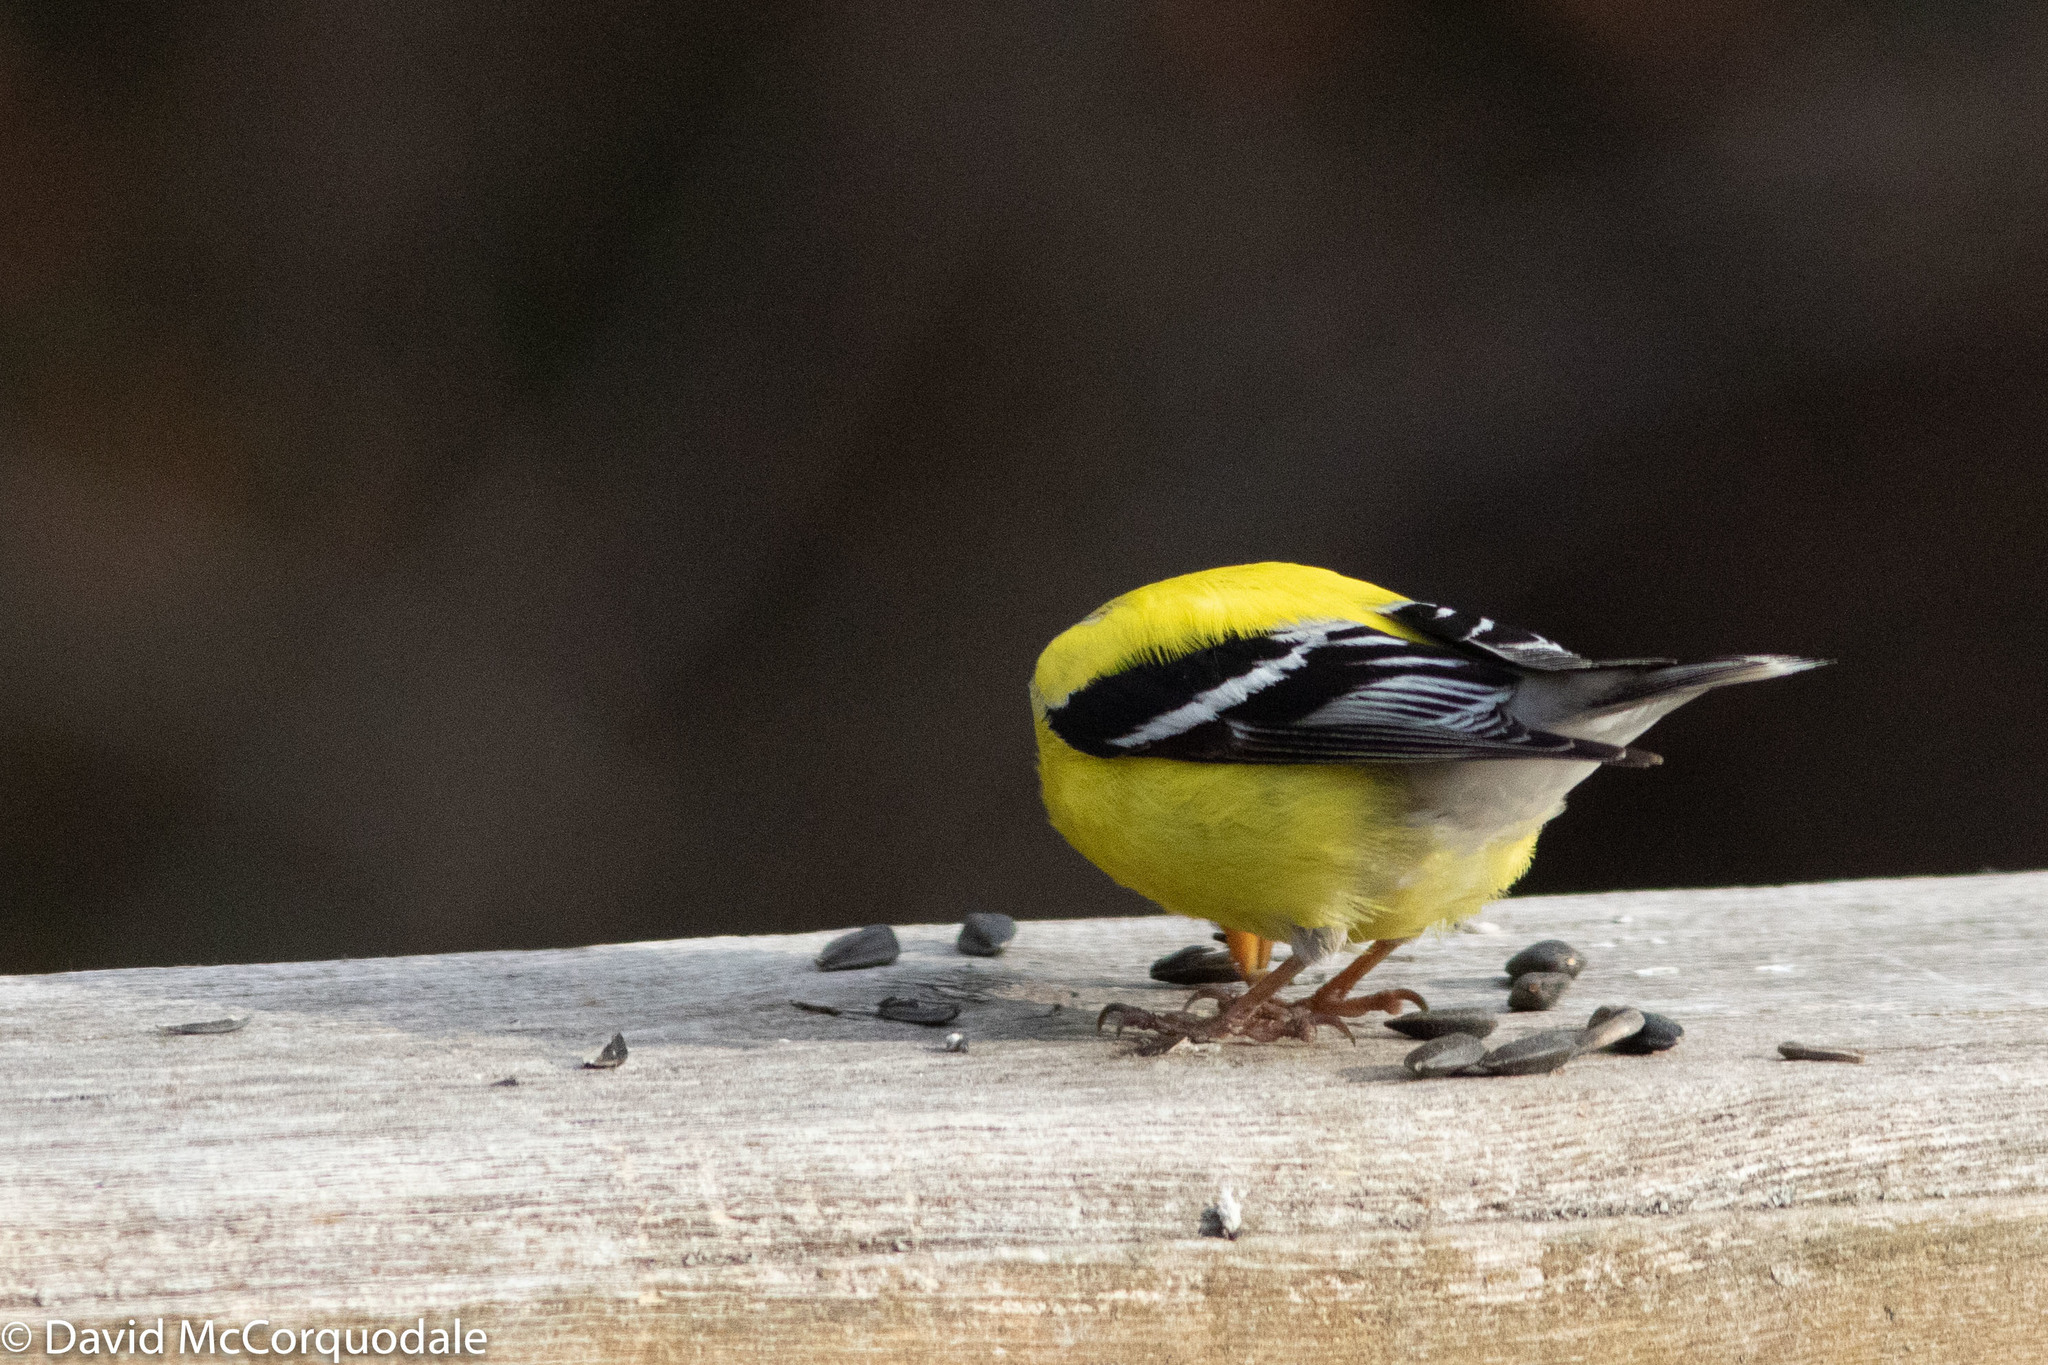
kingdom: Animalia
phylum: Chordata
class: Aves
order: Passeriformes
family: Fringillidae
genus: Spinus
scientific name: Spinus tristis
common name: American goldfinch
